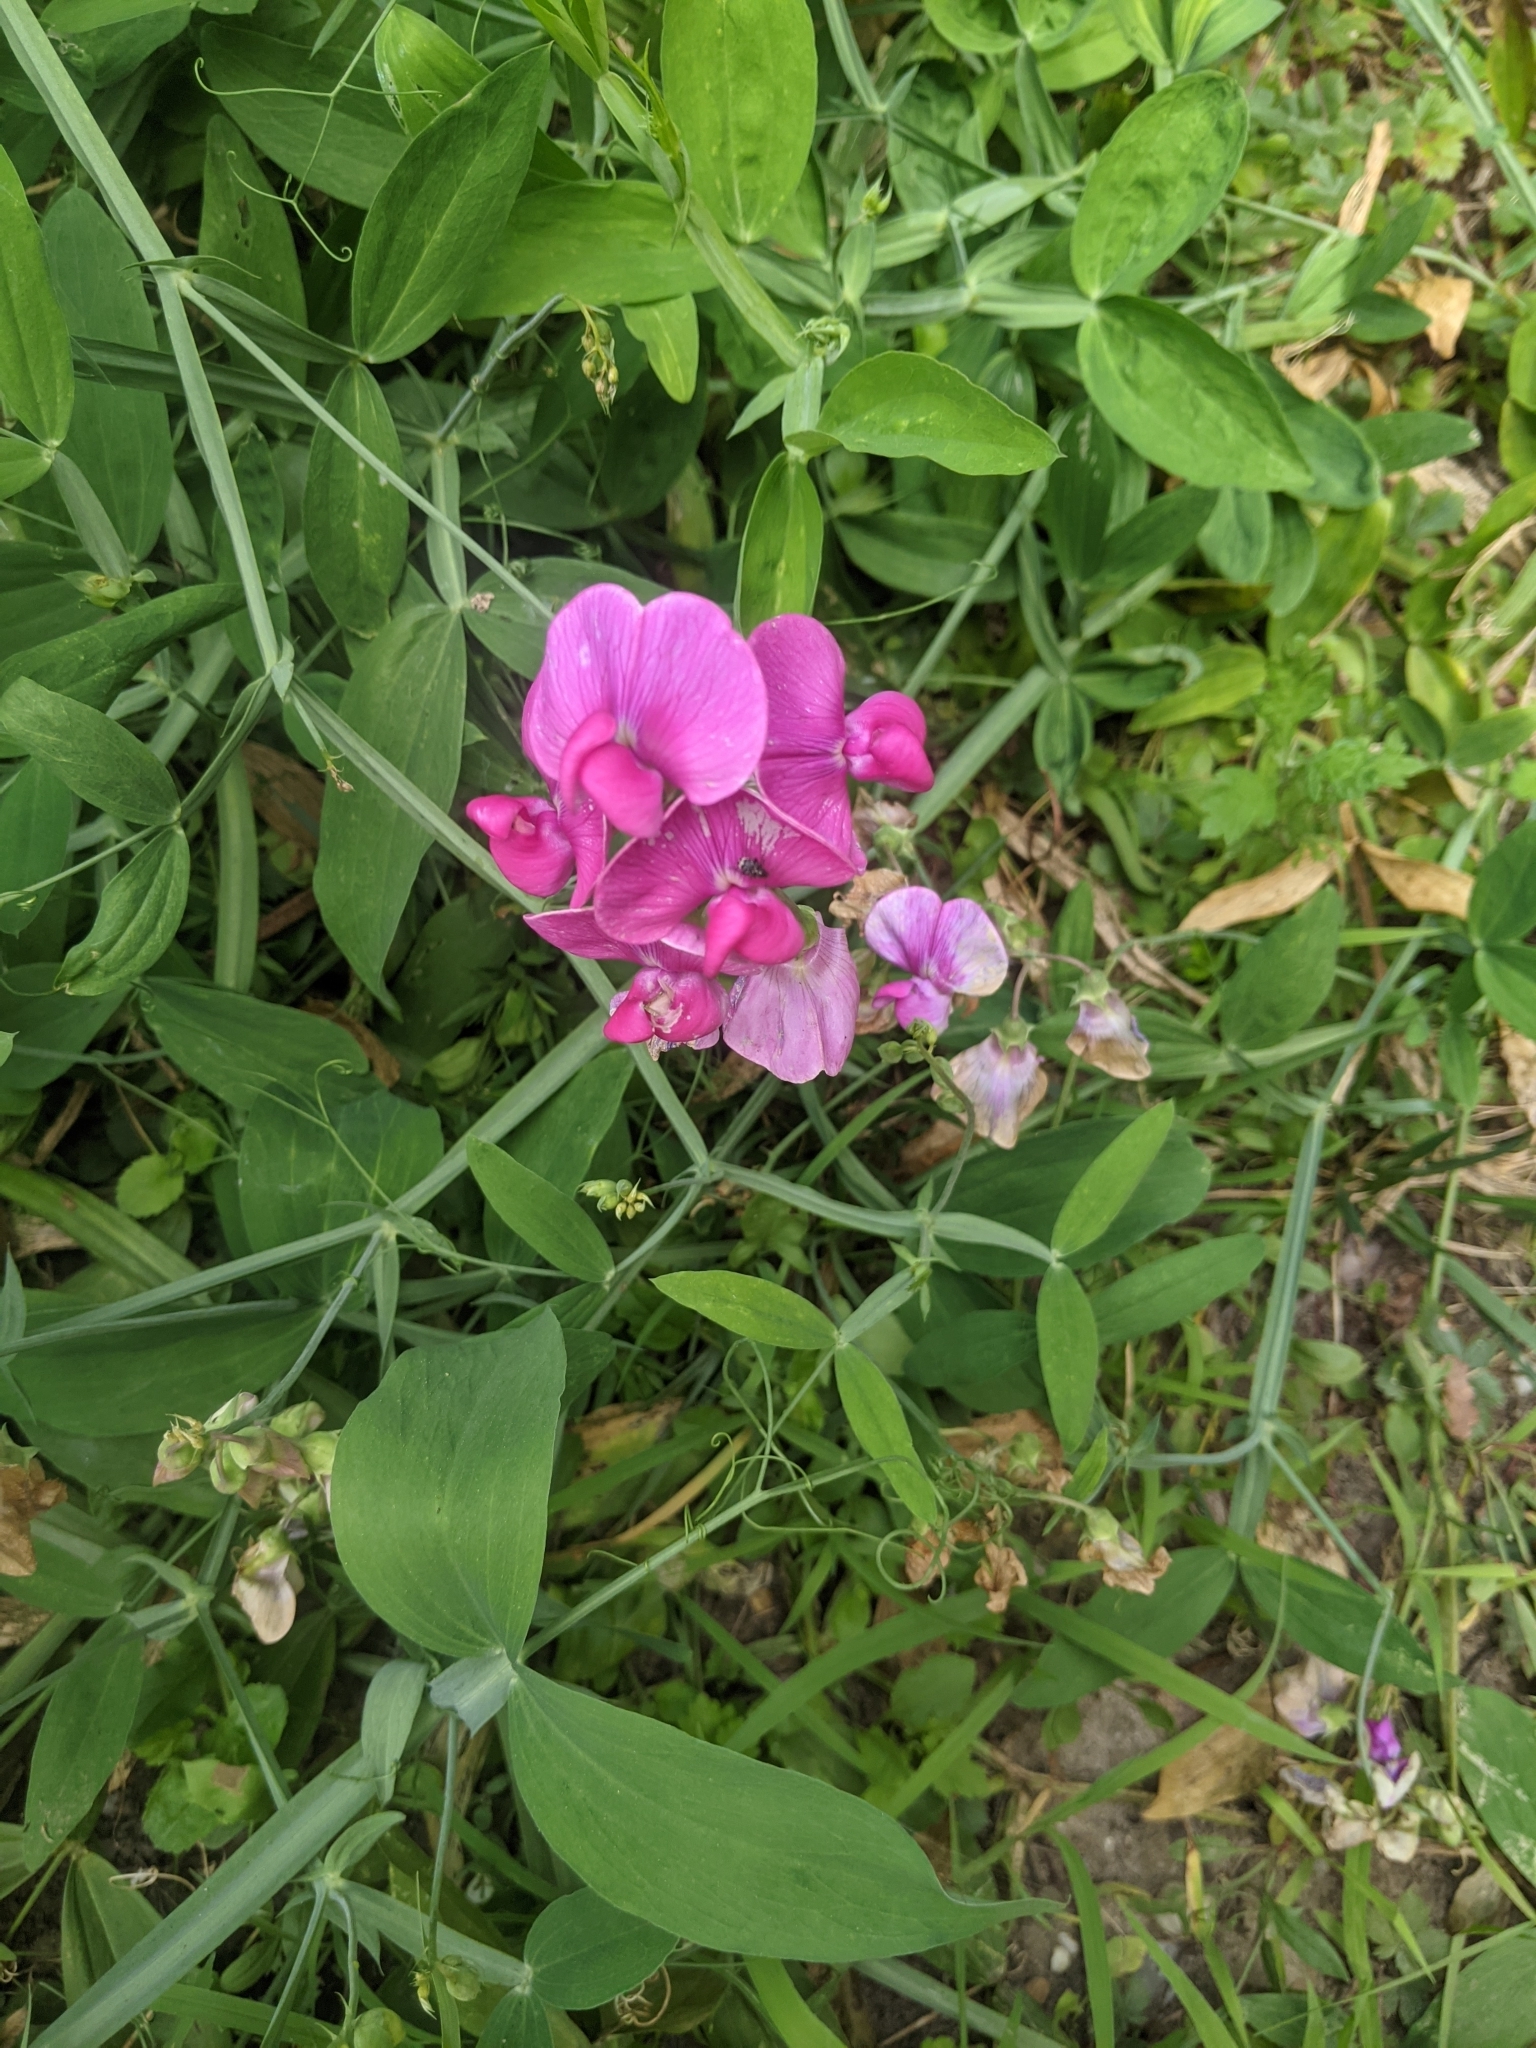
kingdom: Plantae
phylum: Tracheophyta
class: Magnoliopsida
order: Fabales
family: Fabaceae
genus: Lathyrus
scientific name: Lathyrus latifolius
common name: Perennial pea
